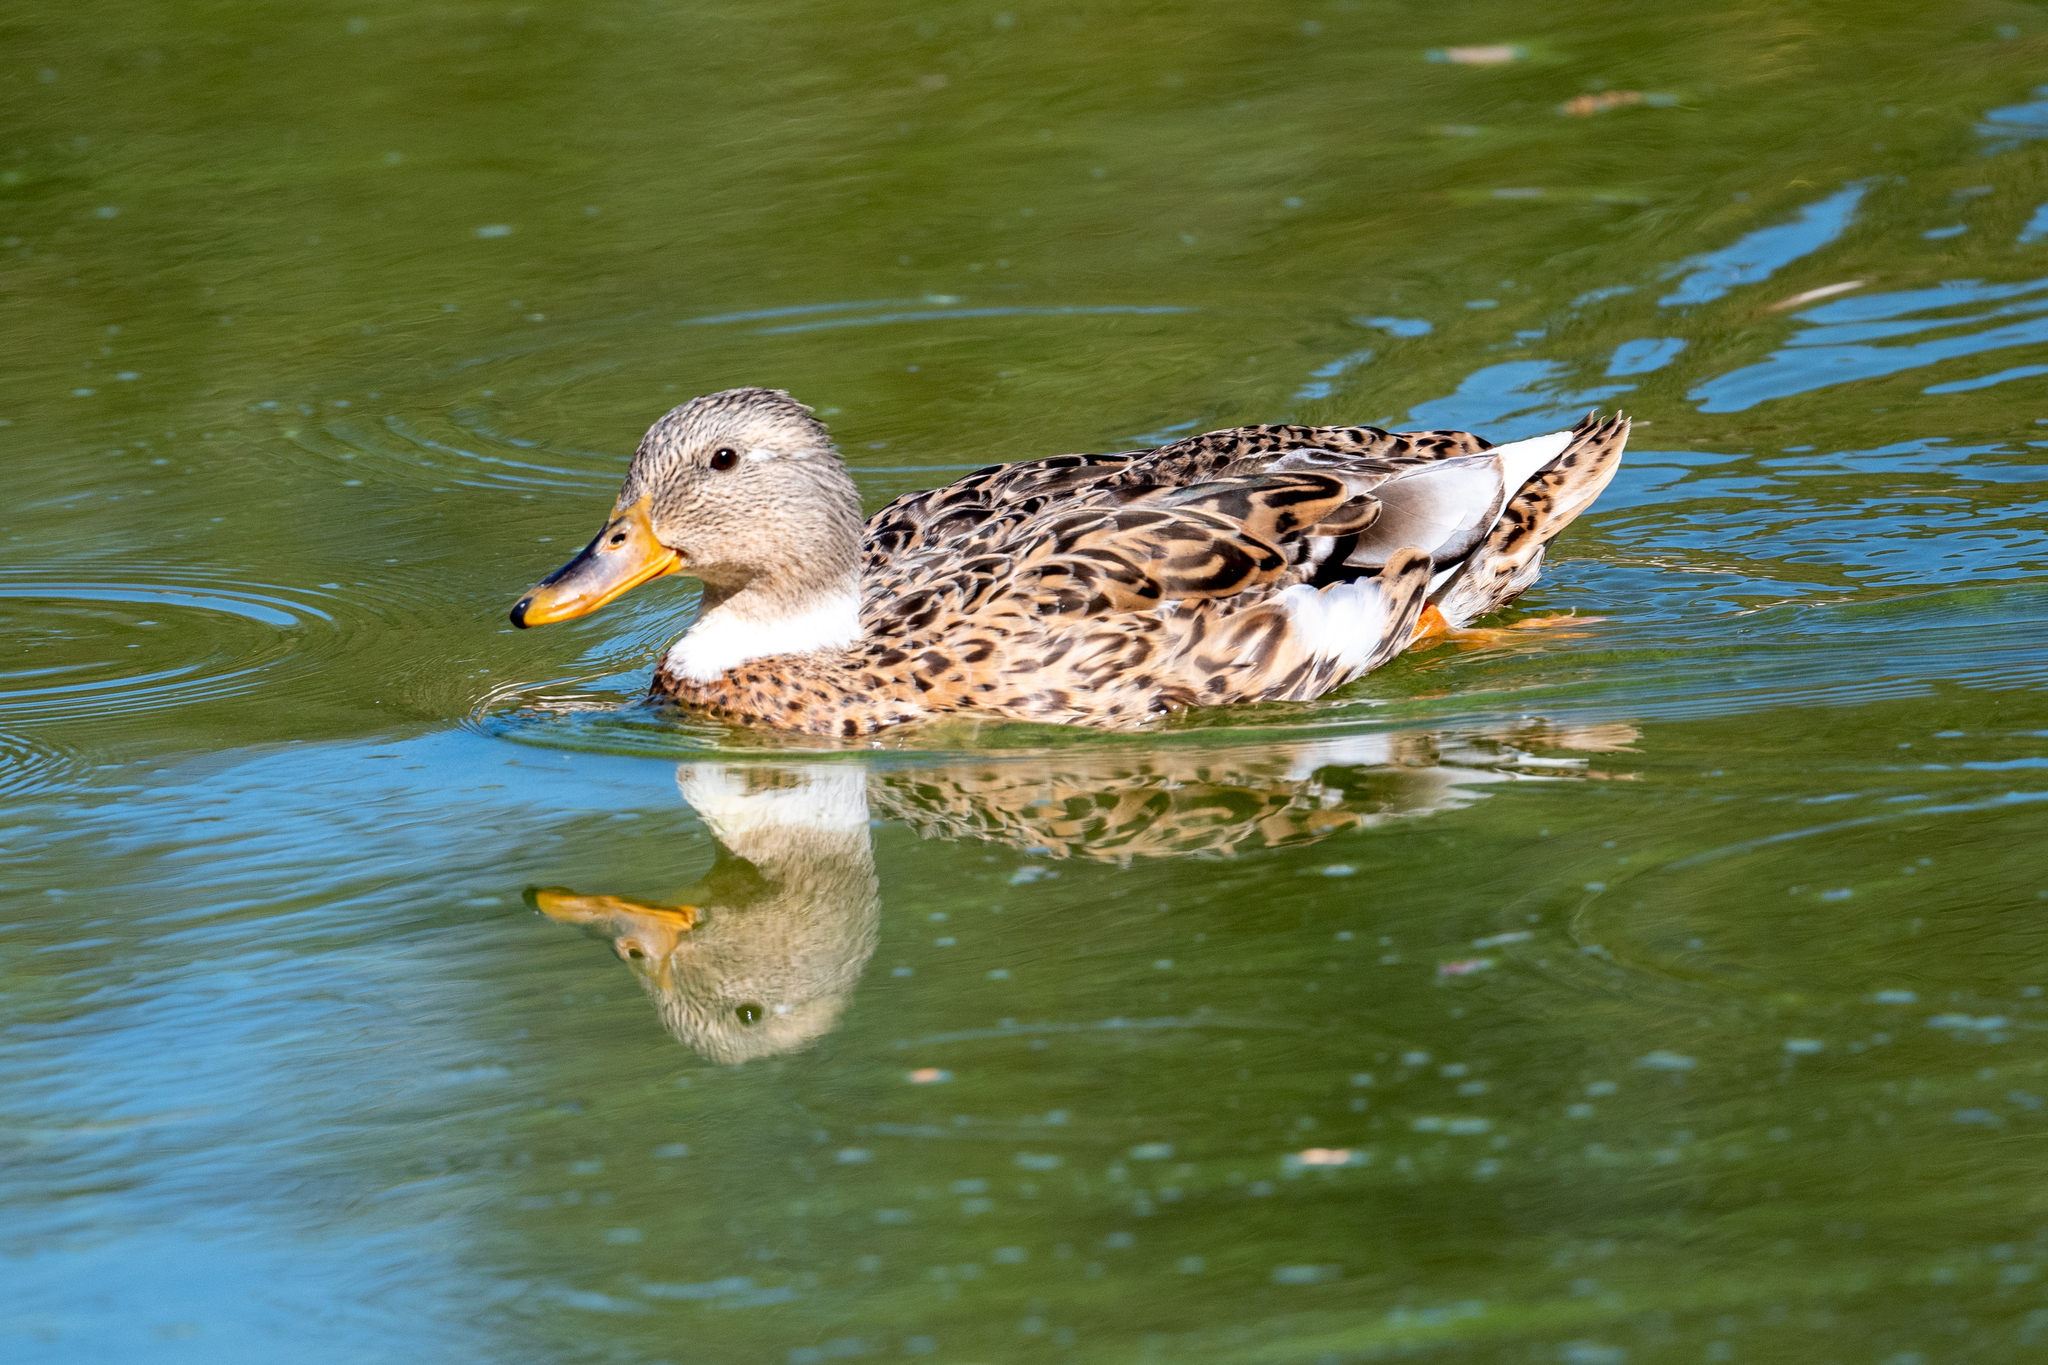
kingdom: Animalia
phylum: Chordata
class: Aves
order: Anseriformes
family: Anatidae
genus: Anas
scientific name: Anas platyrhynchos
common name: Mallard
